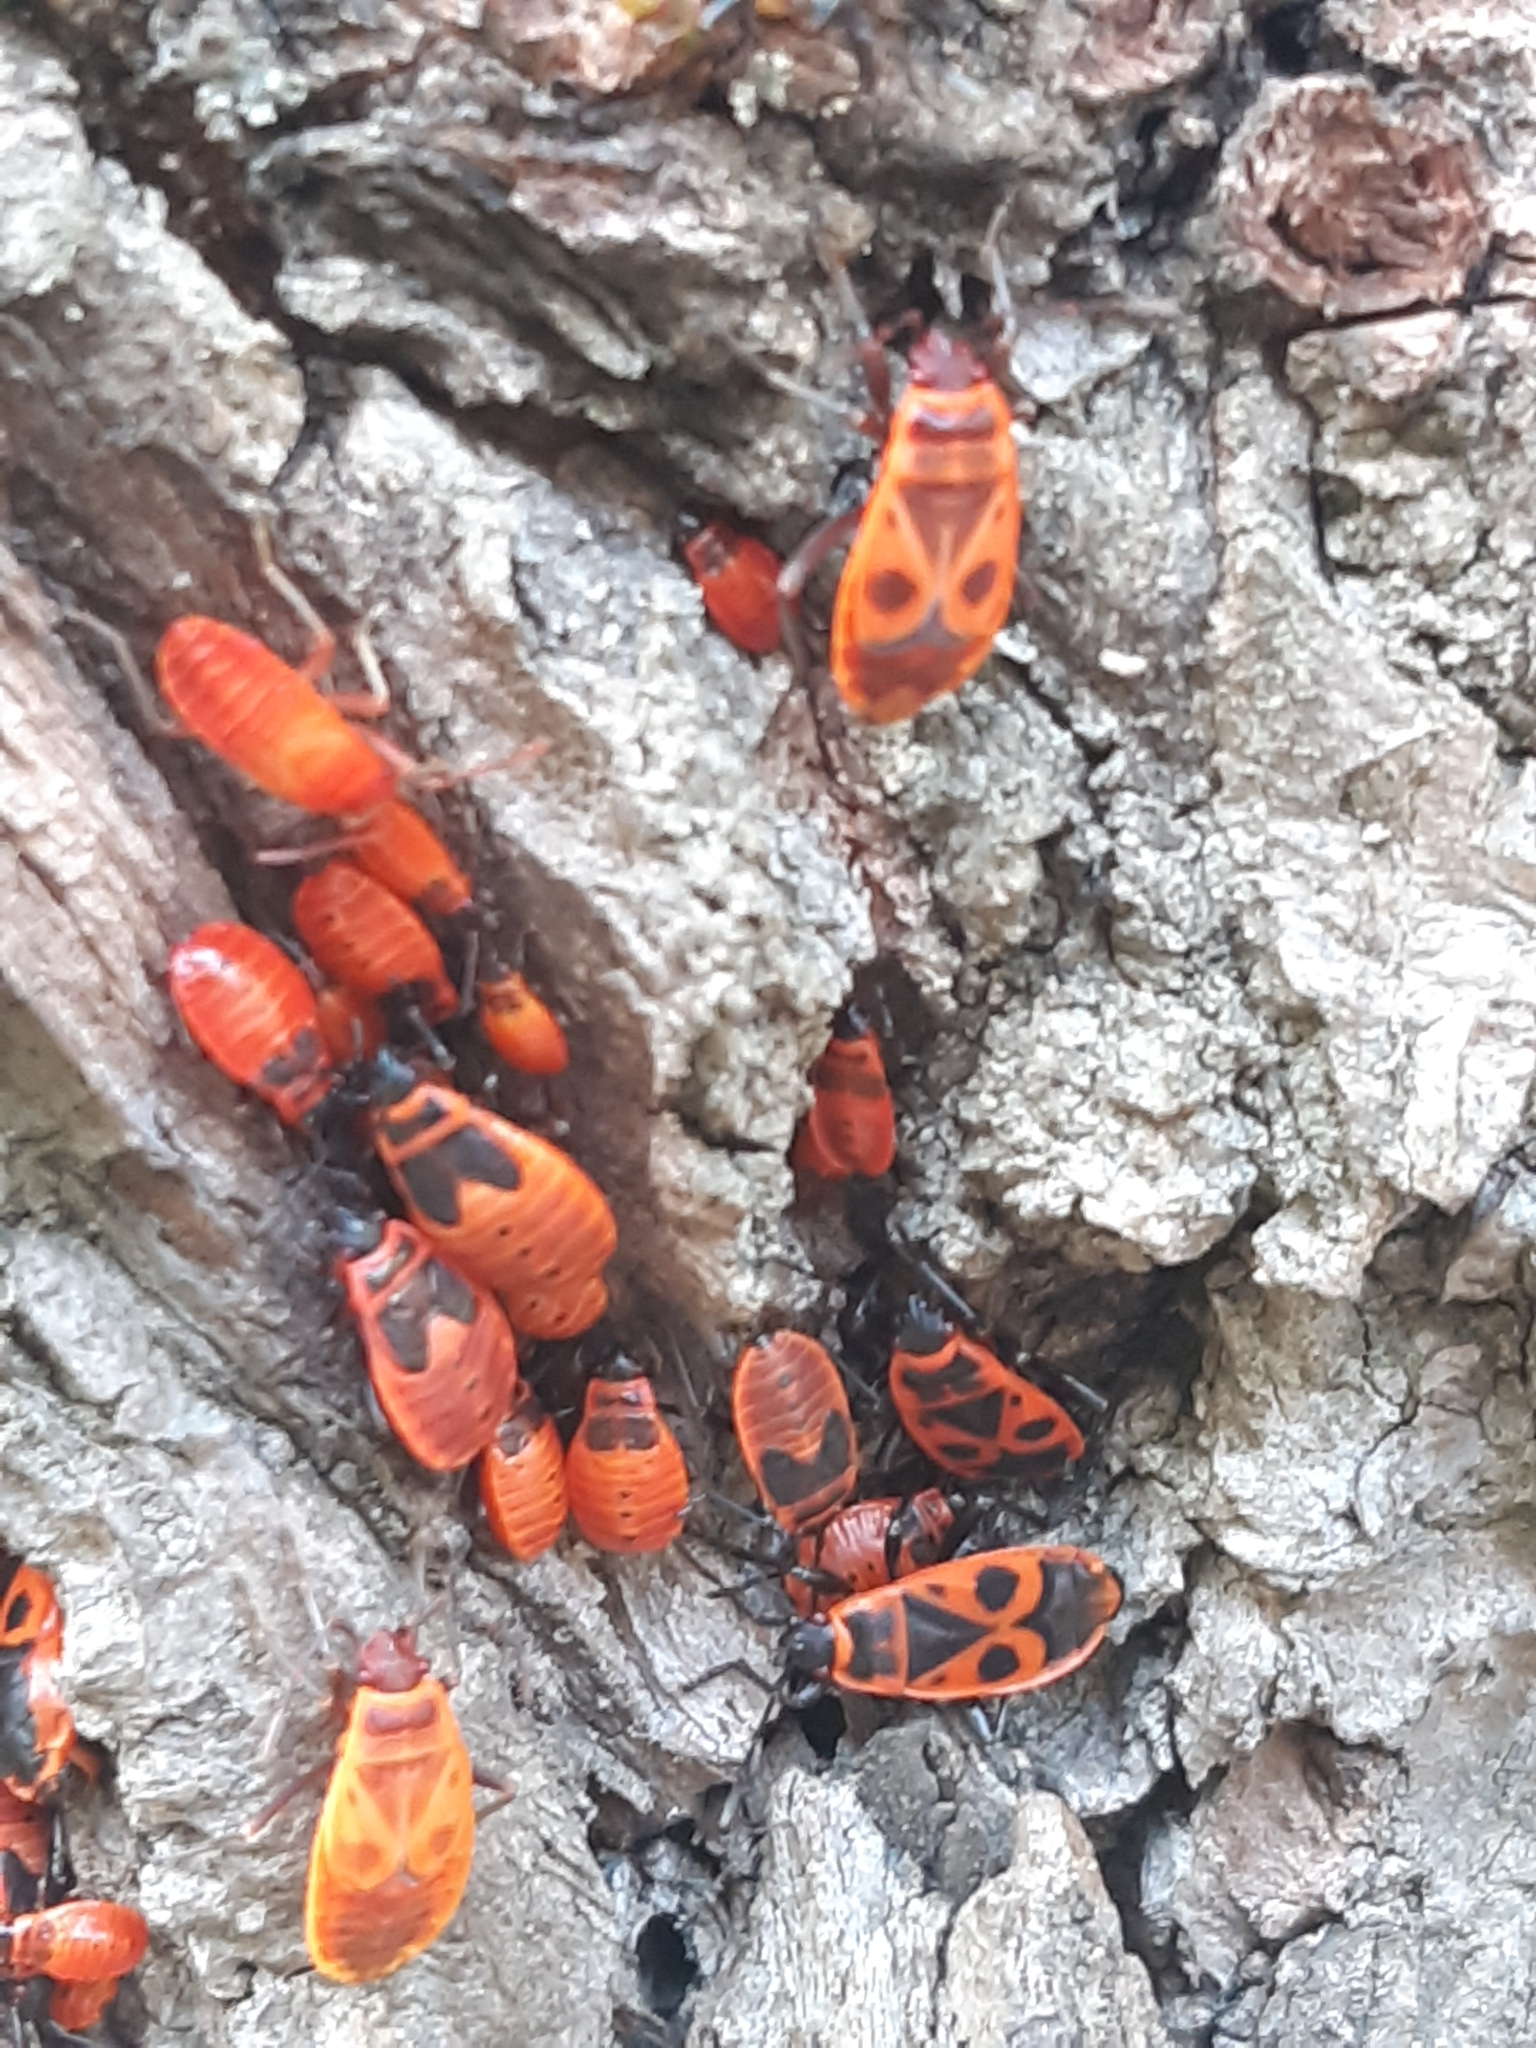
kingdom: Animalia
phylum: Arthropoda
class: Insecta
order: Hemiptera
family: Pyrrhocoridae
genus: Pyrrhocoris
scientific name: Pyrrhocoris apterus
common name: Firebug
